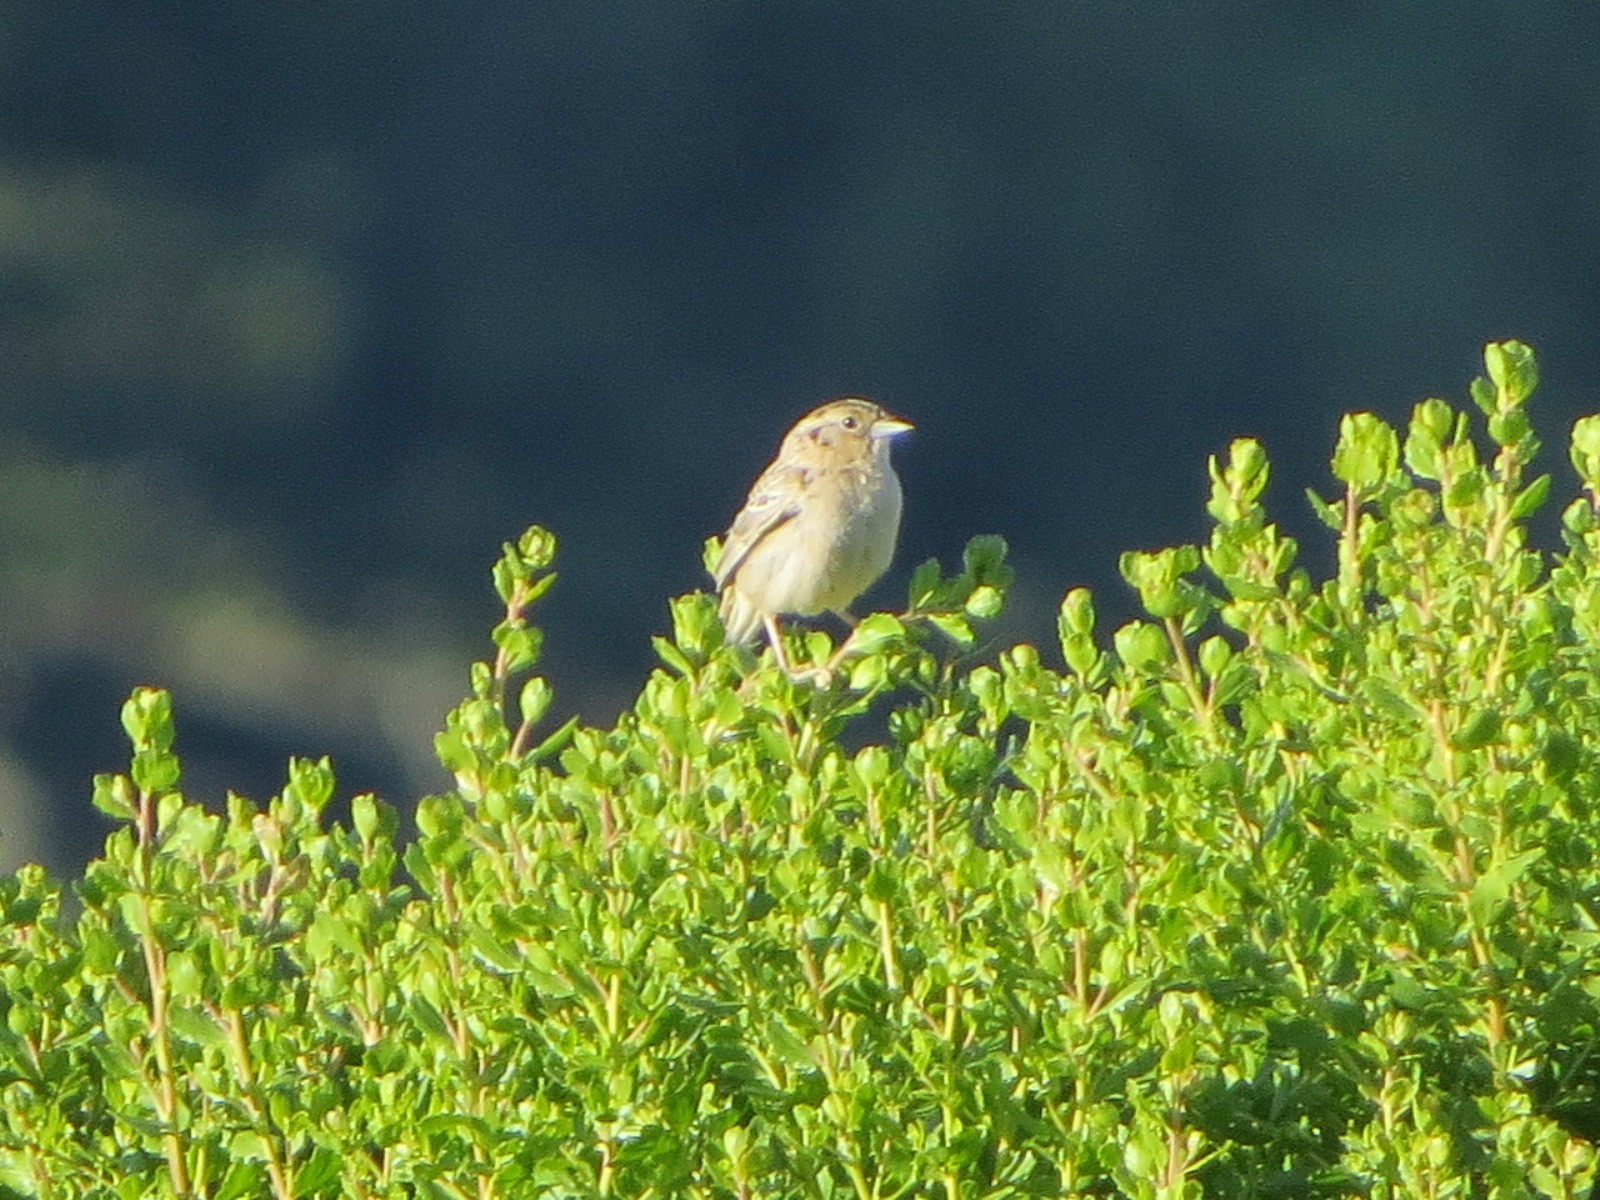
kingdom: Animalia
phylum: Chordata
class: Aves
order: Passeriformes
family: Passerellidae
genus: Ammodramus
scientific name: Ammodramus savannarum
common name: Grasshopper sparrow
